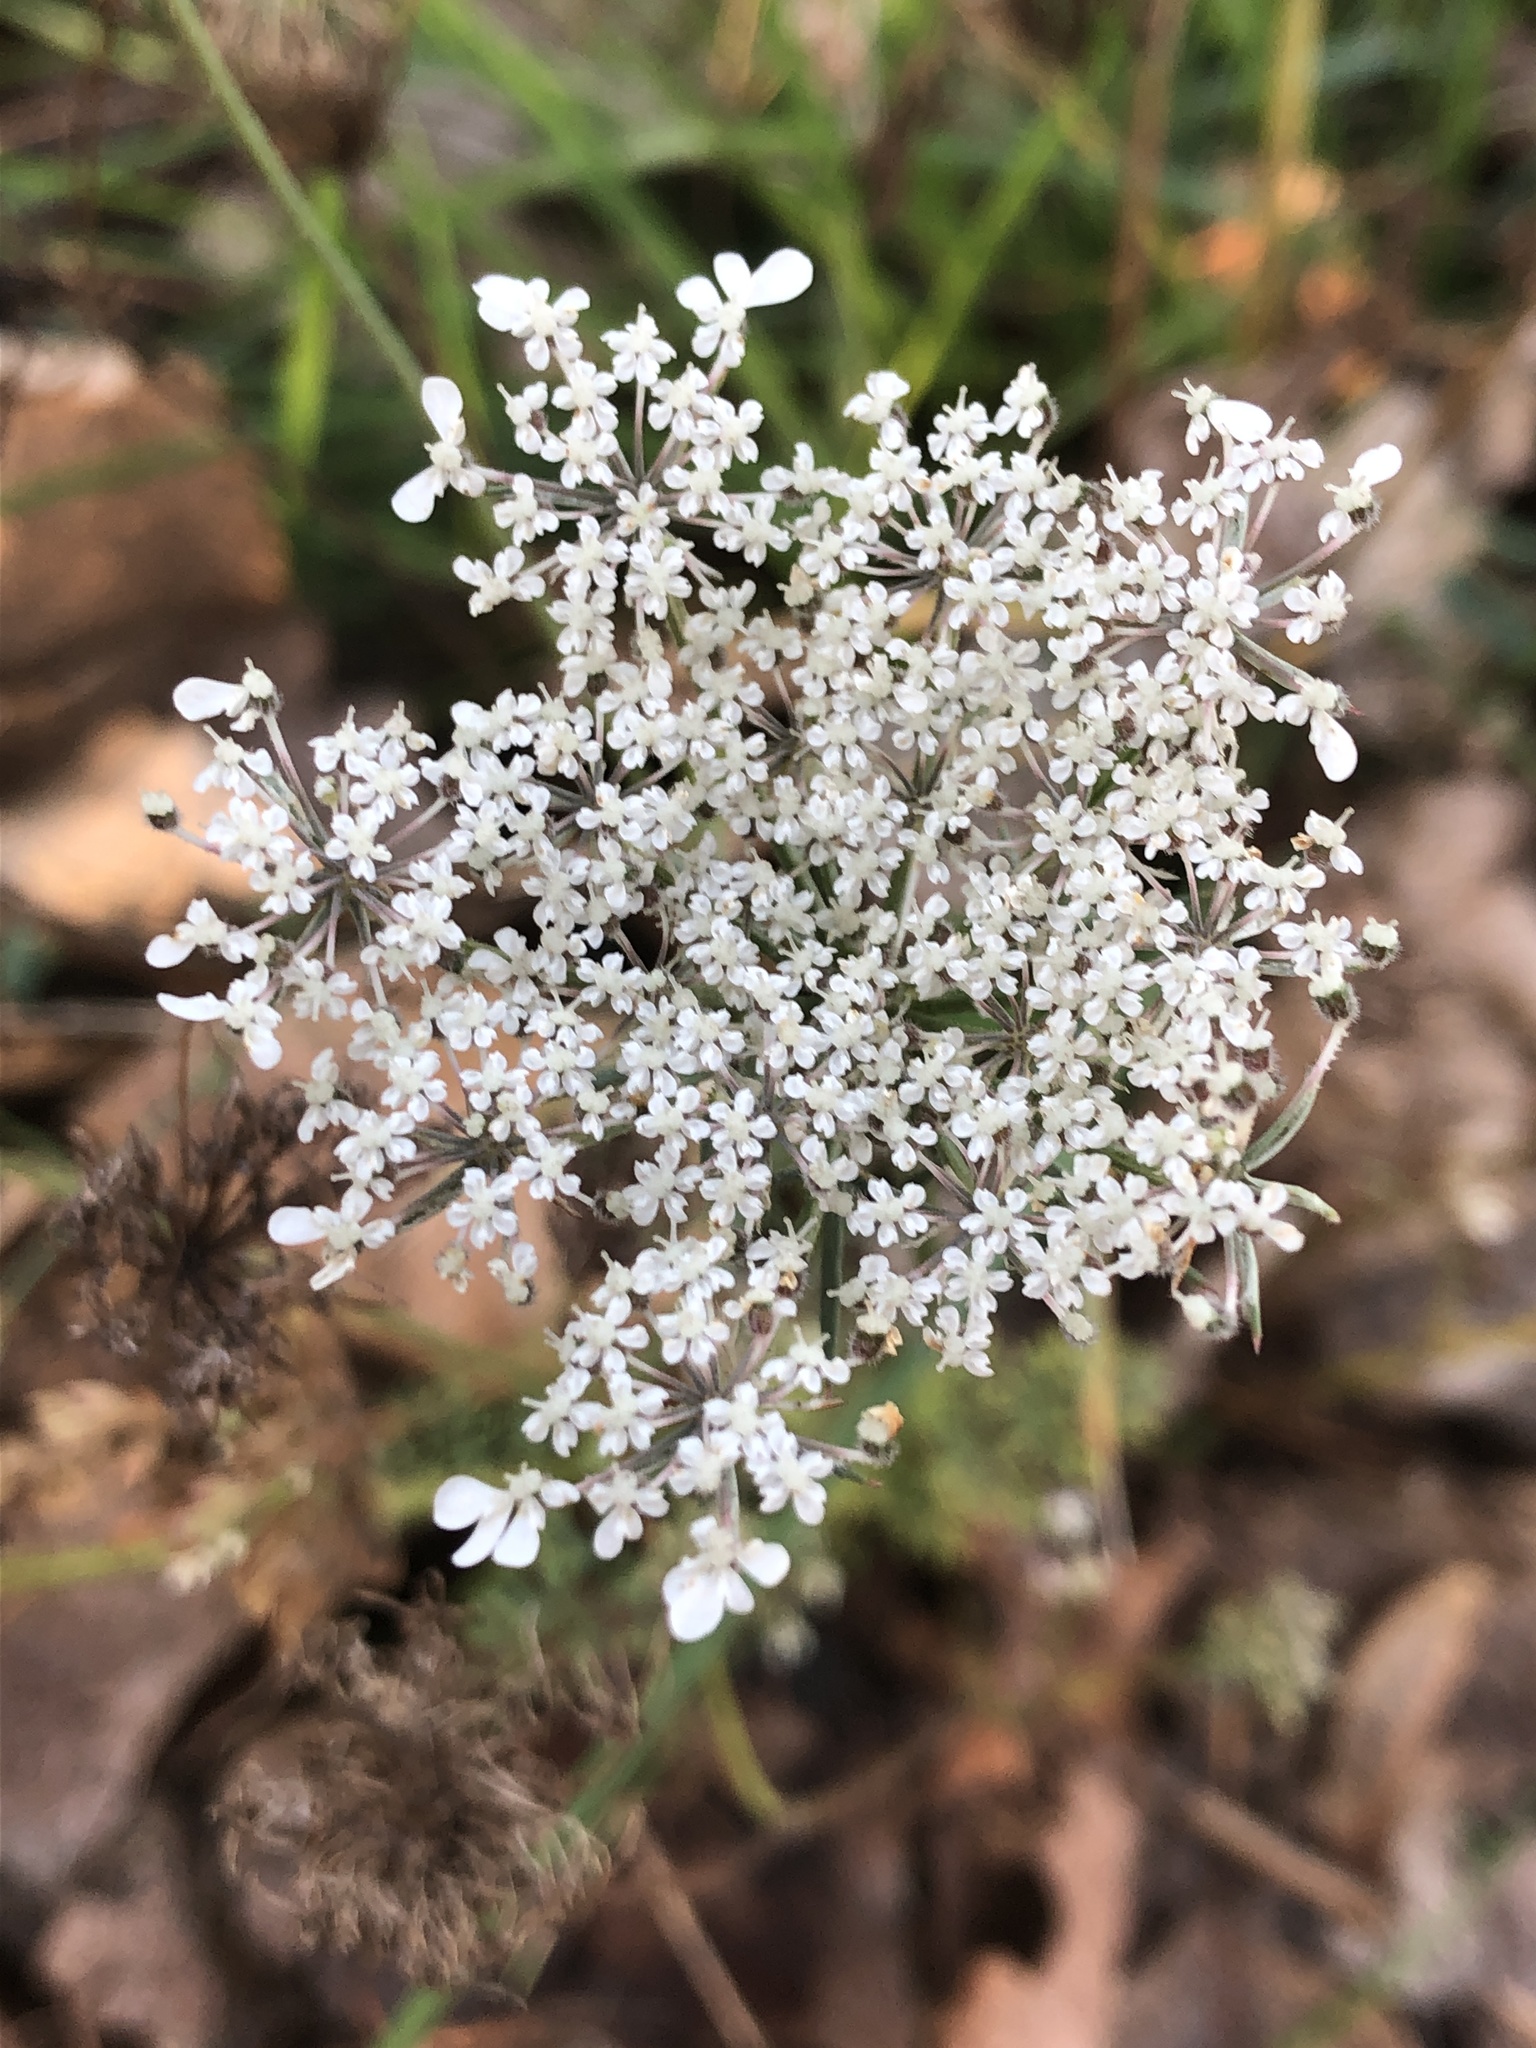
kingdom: Plantae
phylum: Tracheophyta
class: Magnoliopsida
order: Apiales
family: Apiaceae
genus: Daucus
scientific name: Daucus carota
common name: Wild carrot
